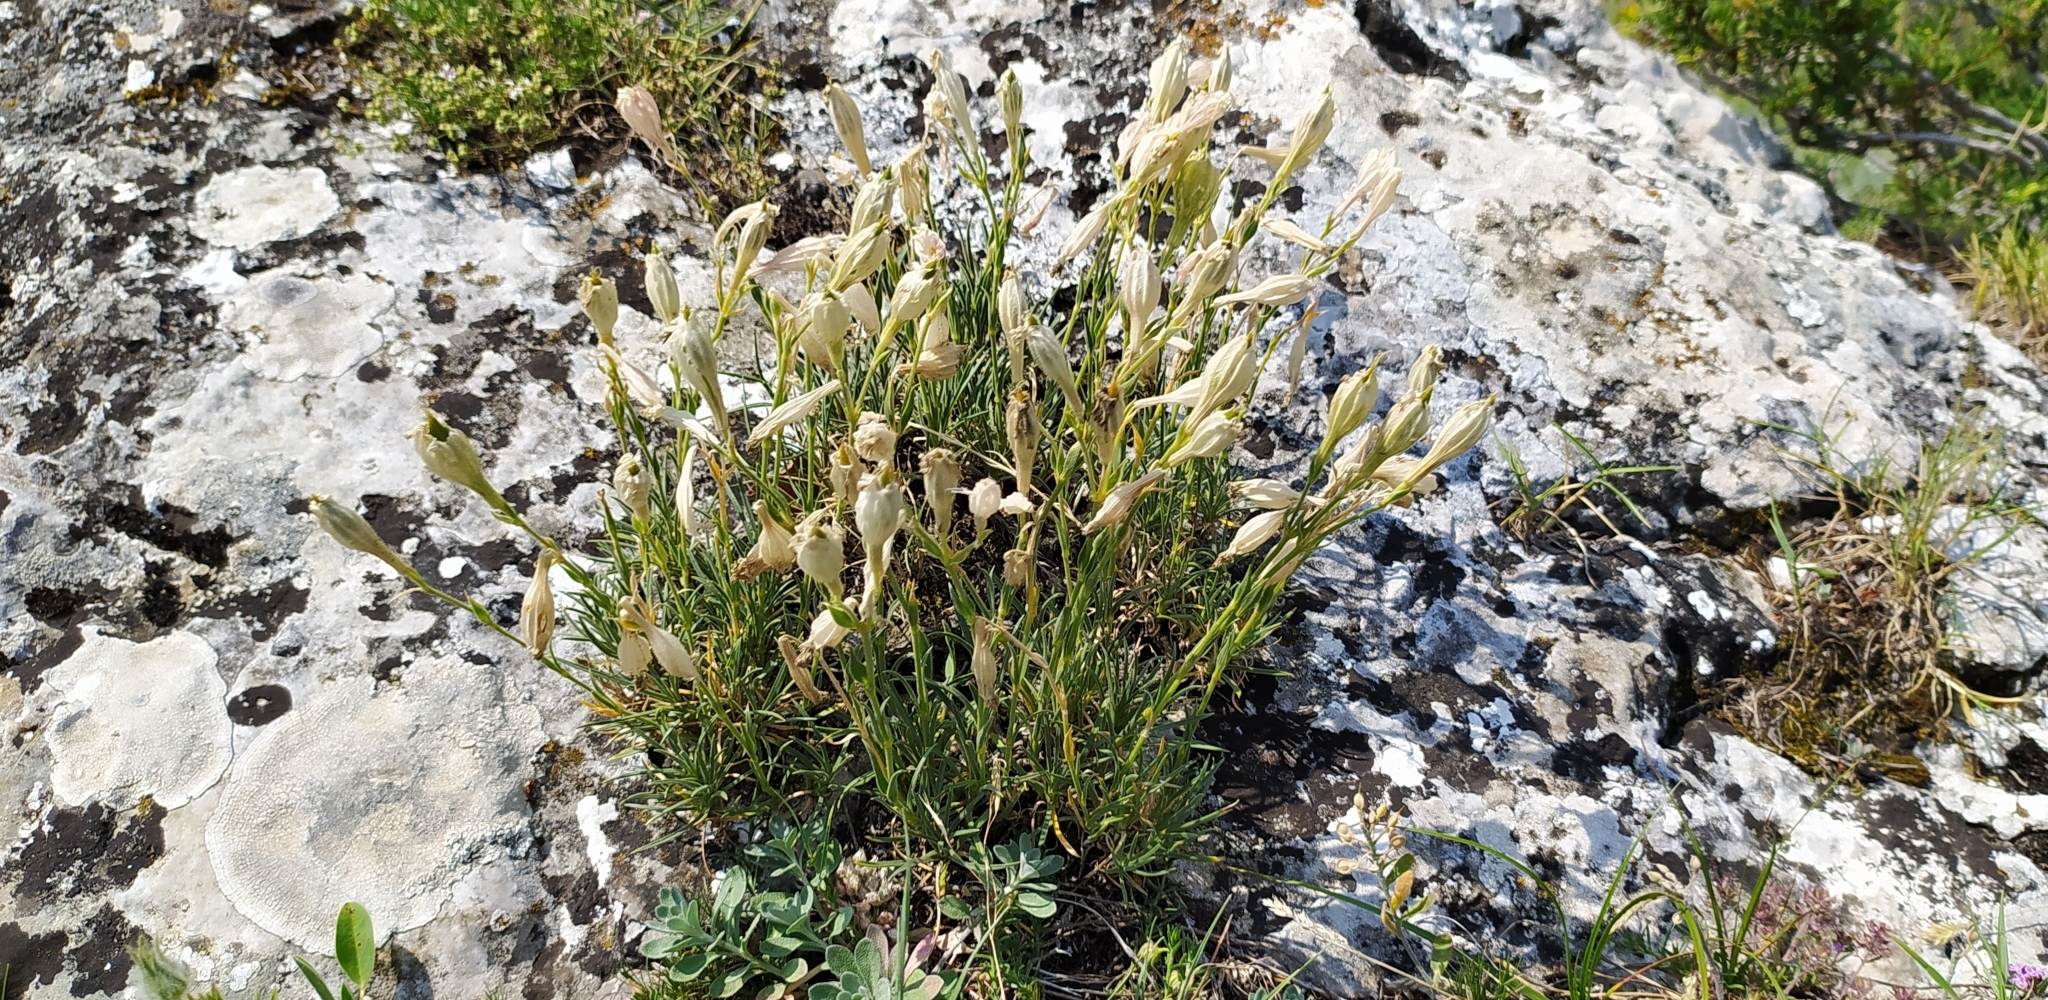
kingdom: Plantae
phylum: Tracheophyta
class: Magnoliopsida
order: Caryophyllales
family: Caryophyllaceae
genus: Silene
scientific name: Silene jailensis
